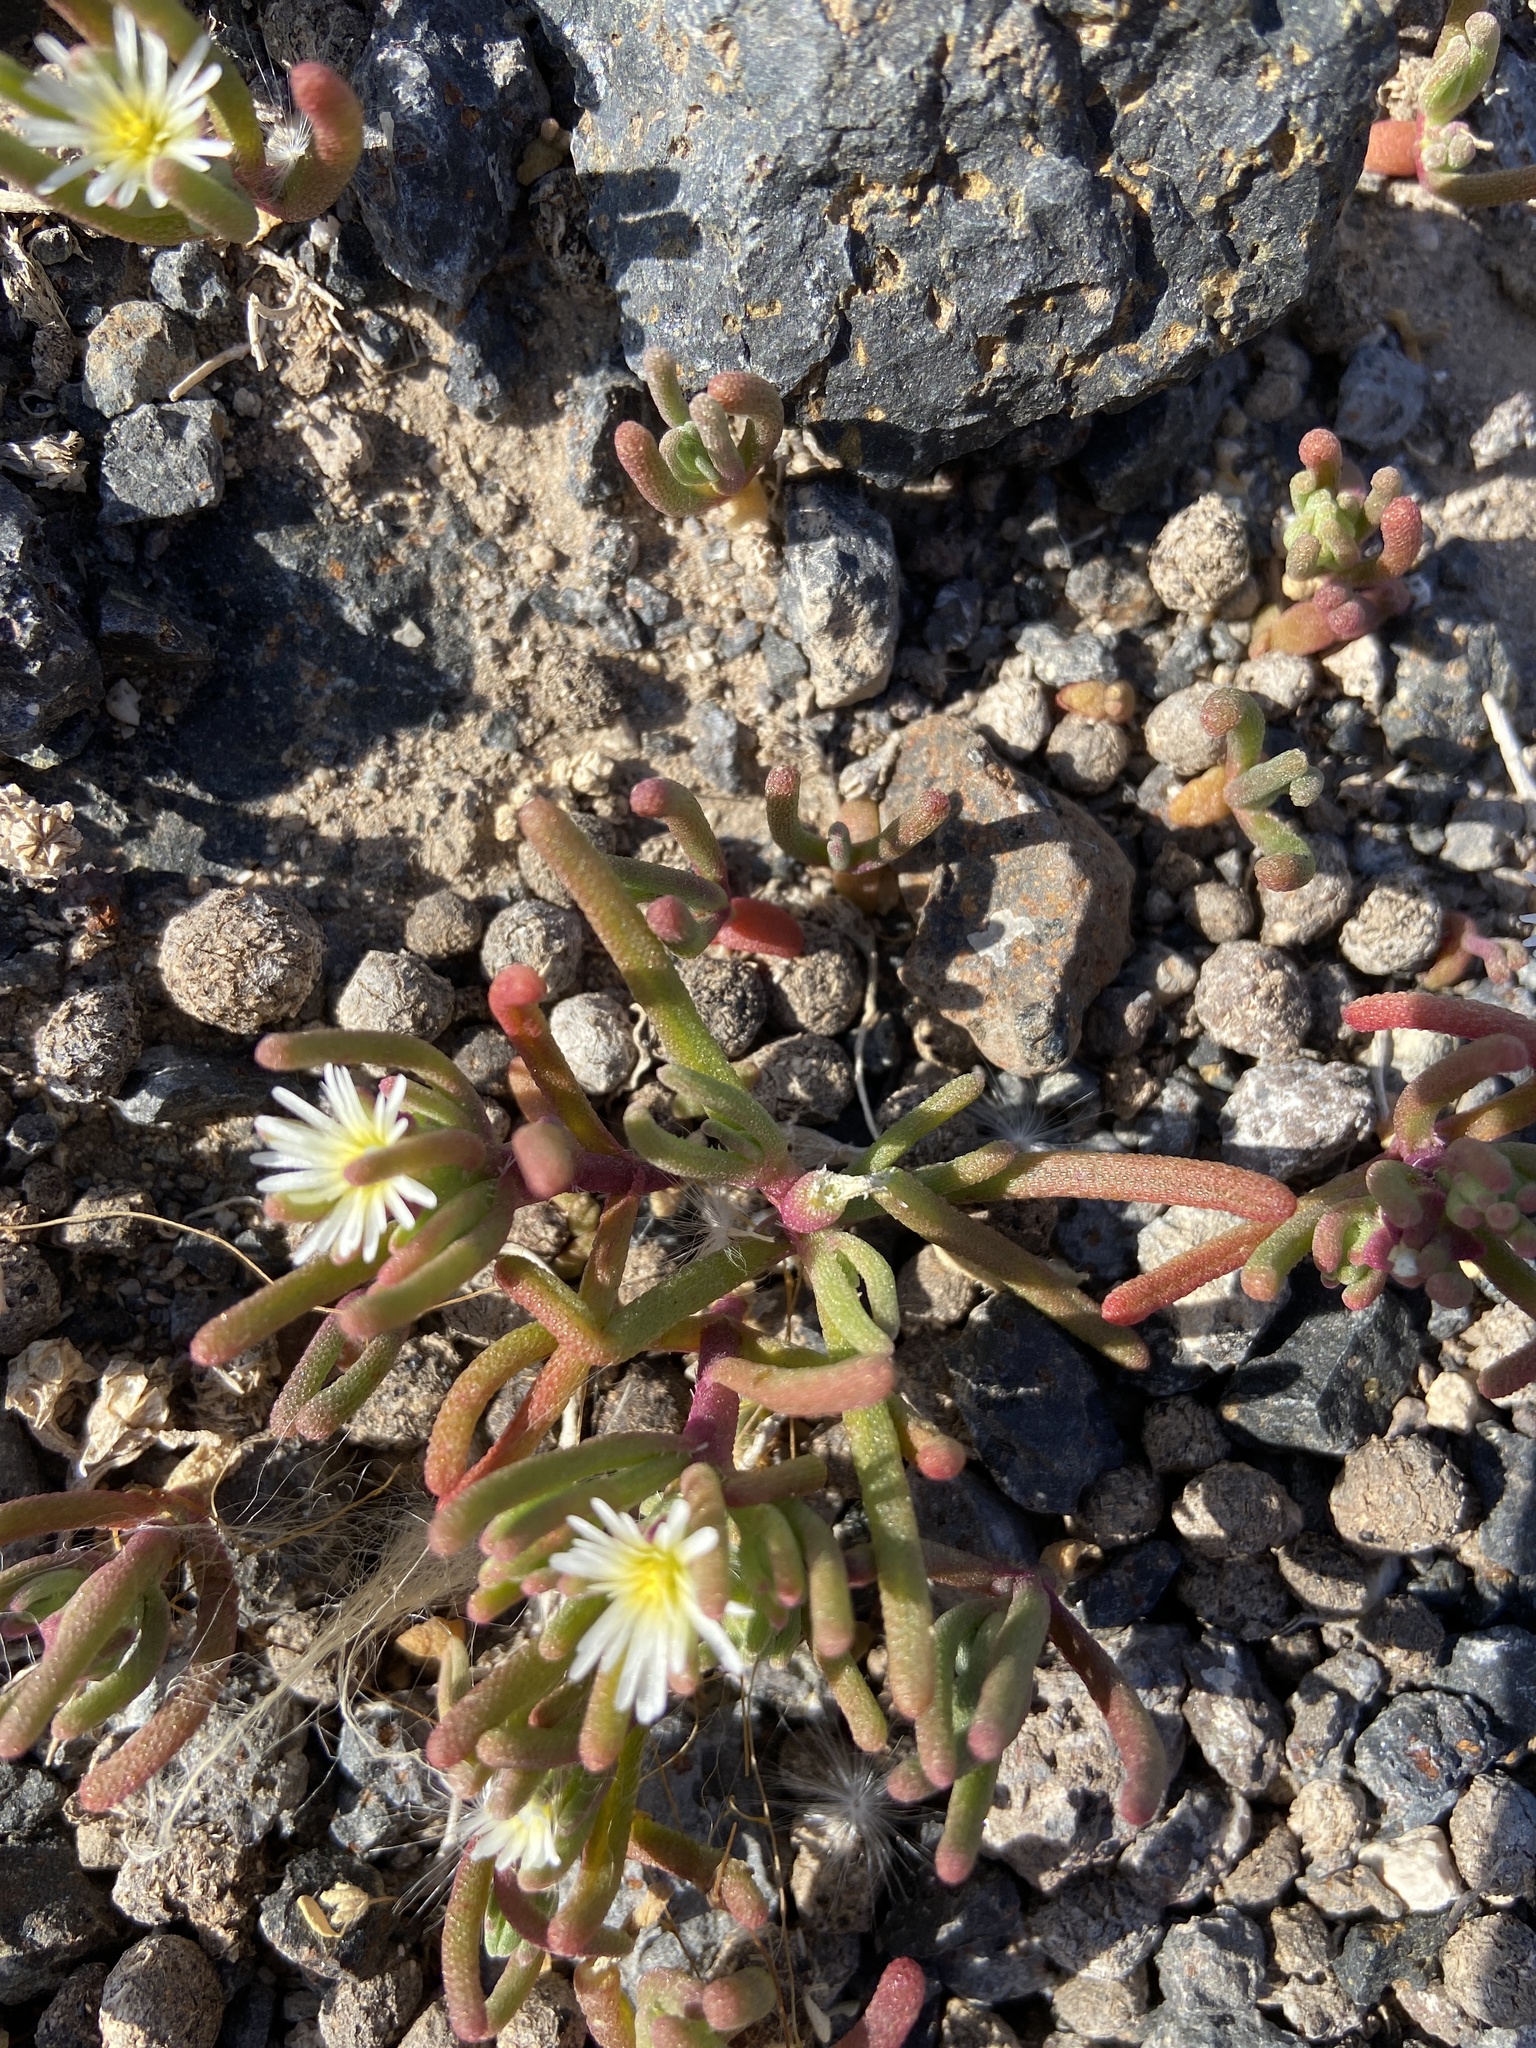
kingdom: Plantae
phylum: Tracheophyta
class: Magnoliopsida
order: Caryophyllales
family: Aizoaceae
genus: Mesembryanthemum
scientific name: Mesembryanthemum nodiflorum
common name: Slenderleaf iceplant
